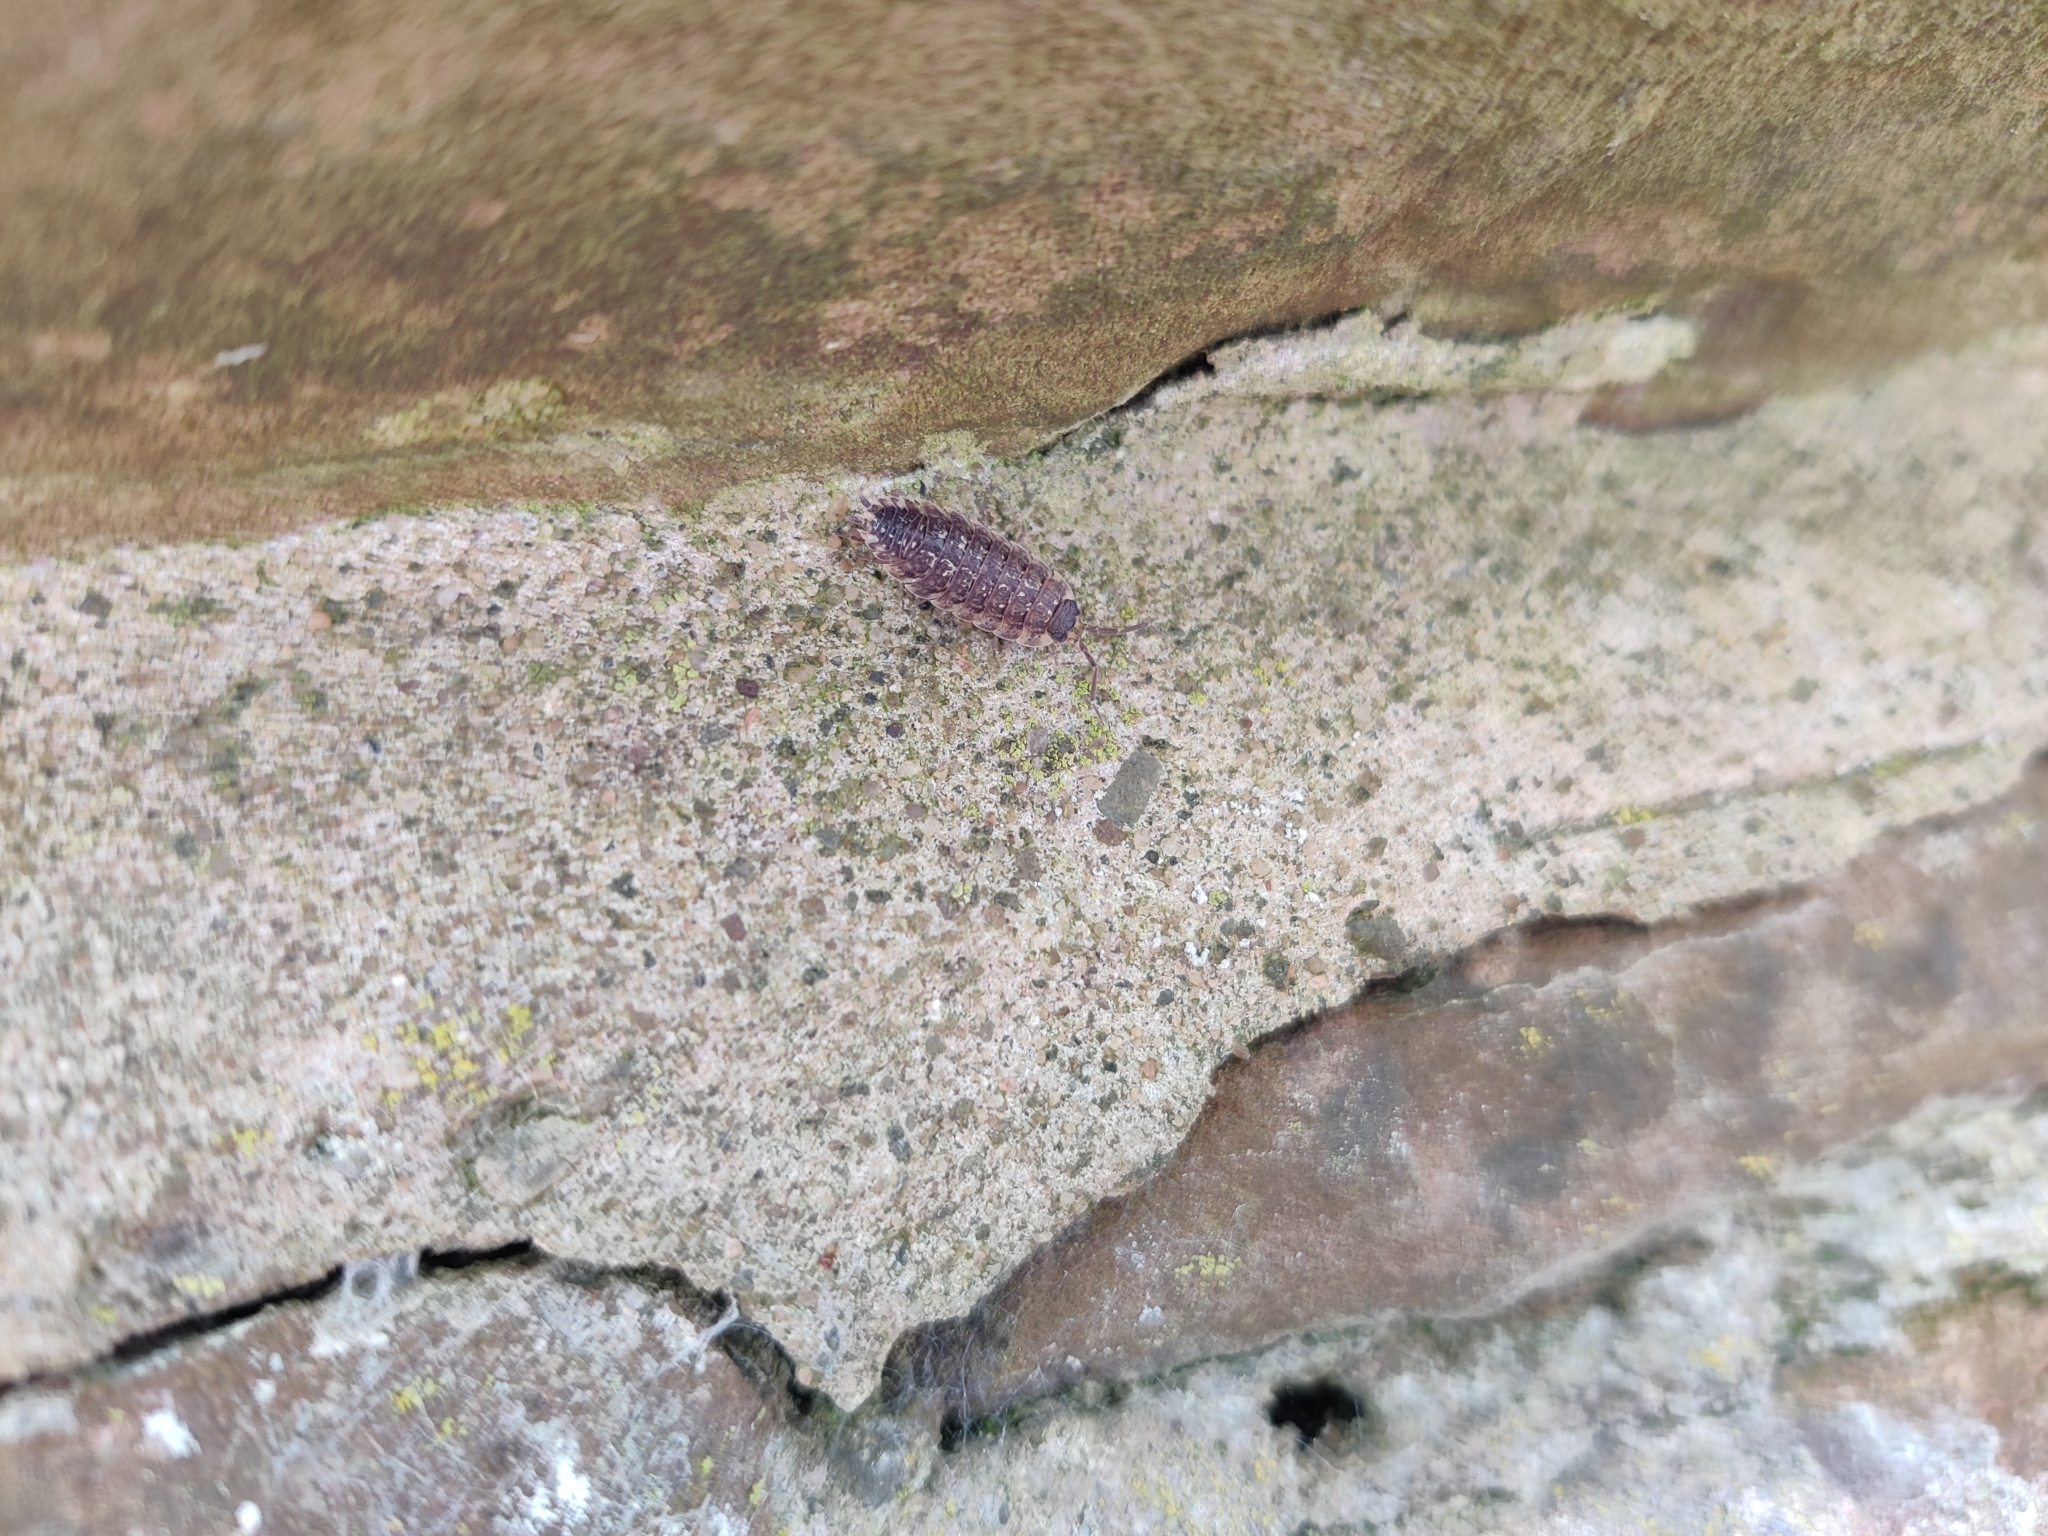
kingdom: Animalia
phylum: Arthropoda
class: Malacostraca
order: Isopoda
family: Porcellionidae
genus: Porcellio
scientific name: Porcellio spinicornis
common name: Painted woodlouse
